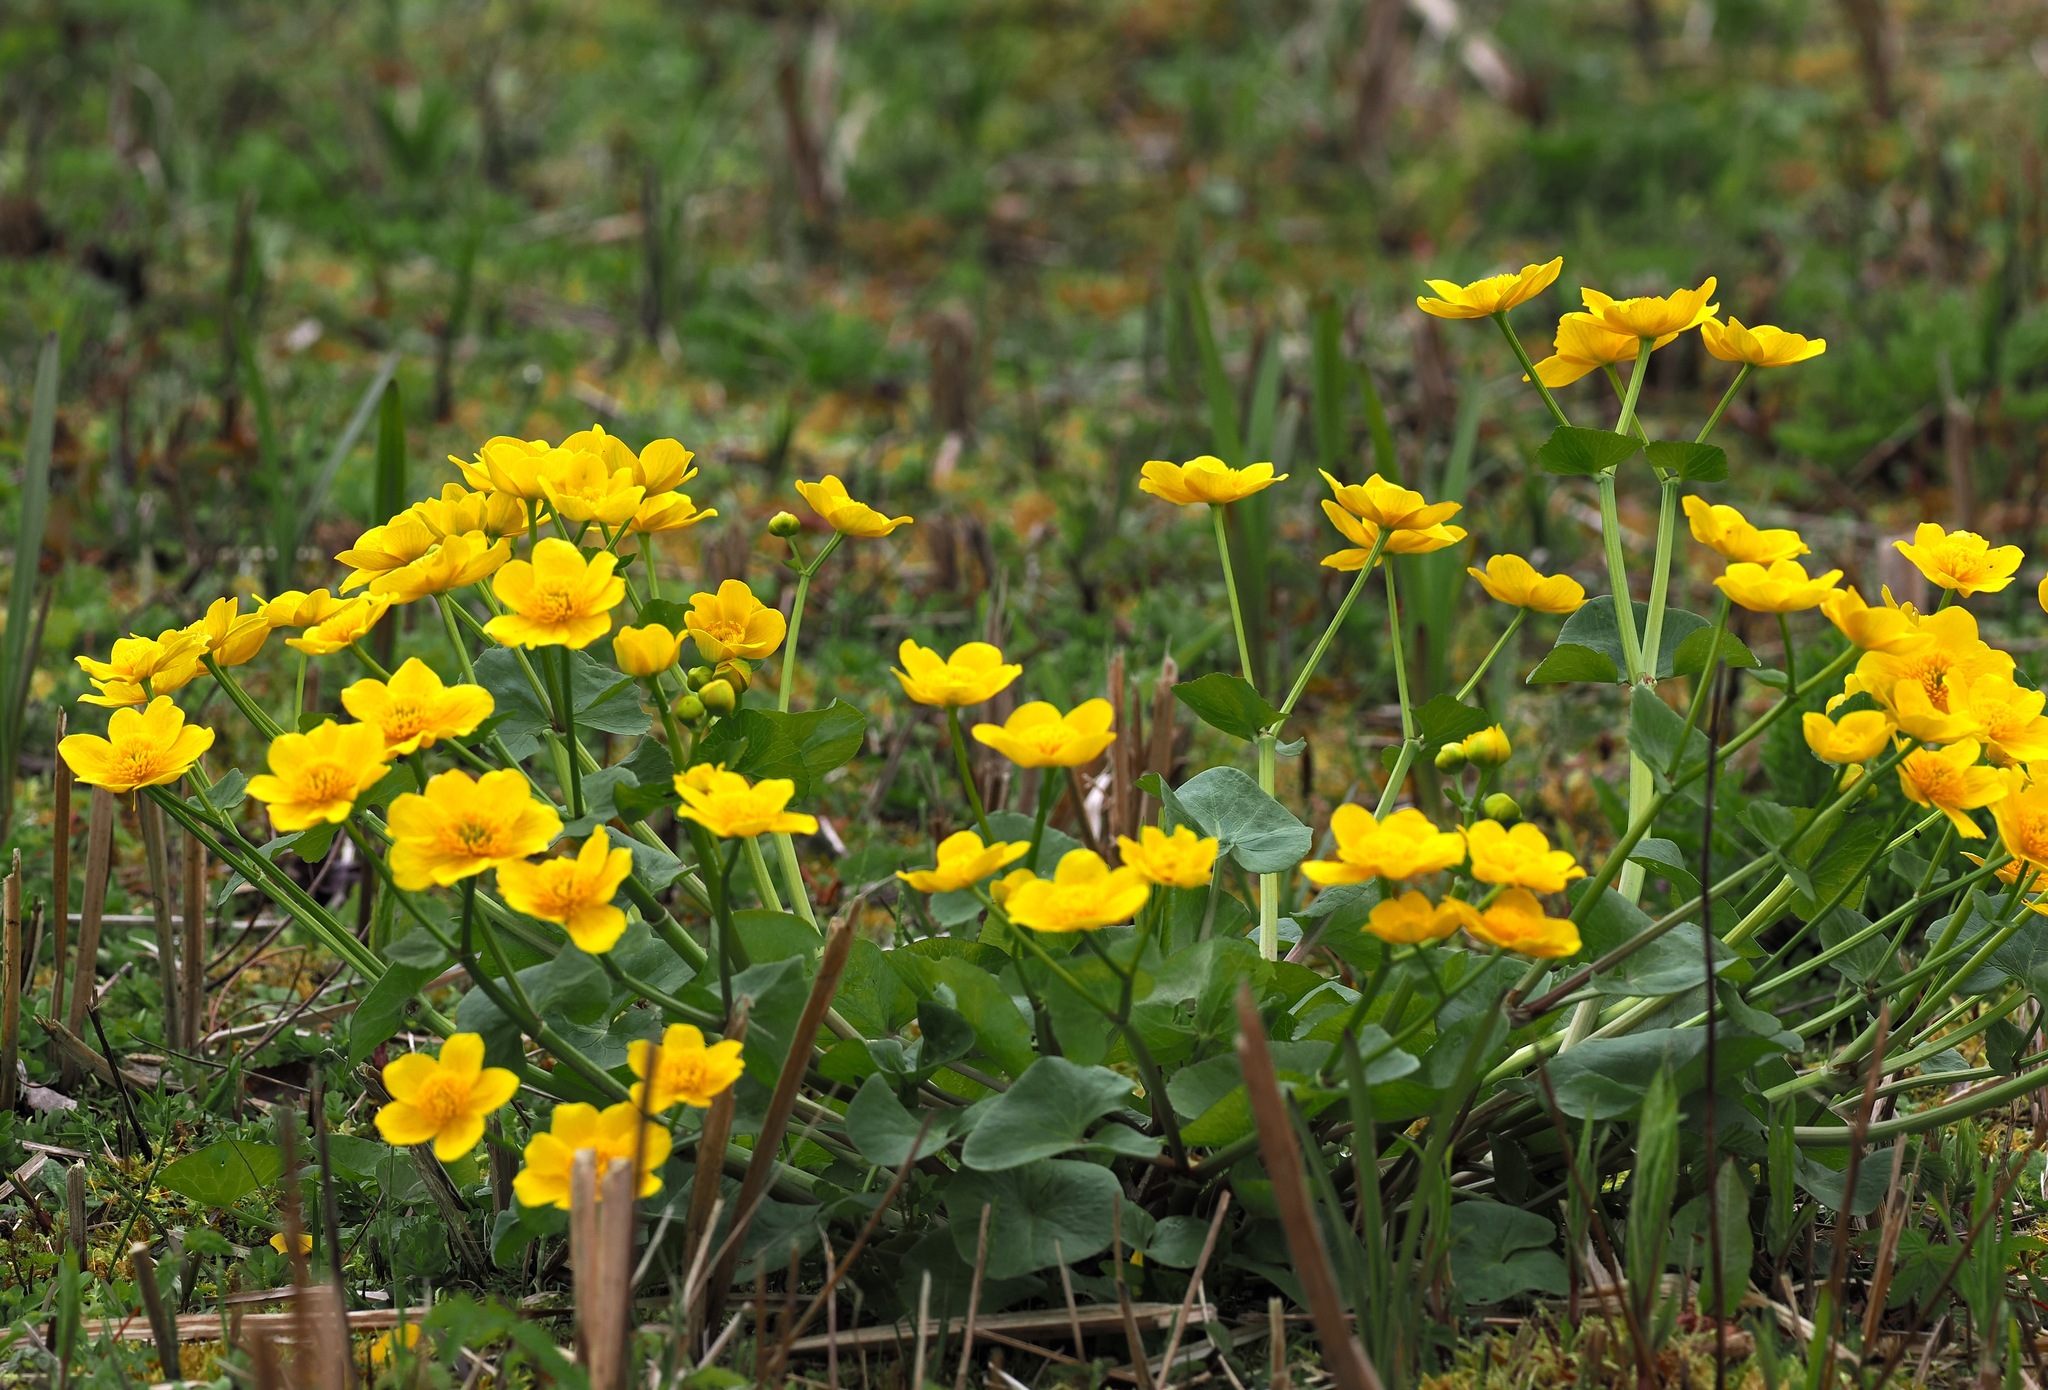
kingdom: Plantae
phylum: Tracheophyta
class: Magnoliopsida
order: Ranunculales
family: Ranunculaceae
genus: Caltha
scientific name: Caltha palustris
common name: Marsh marigold
